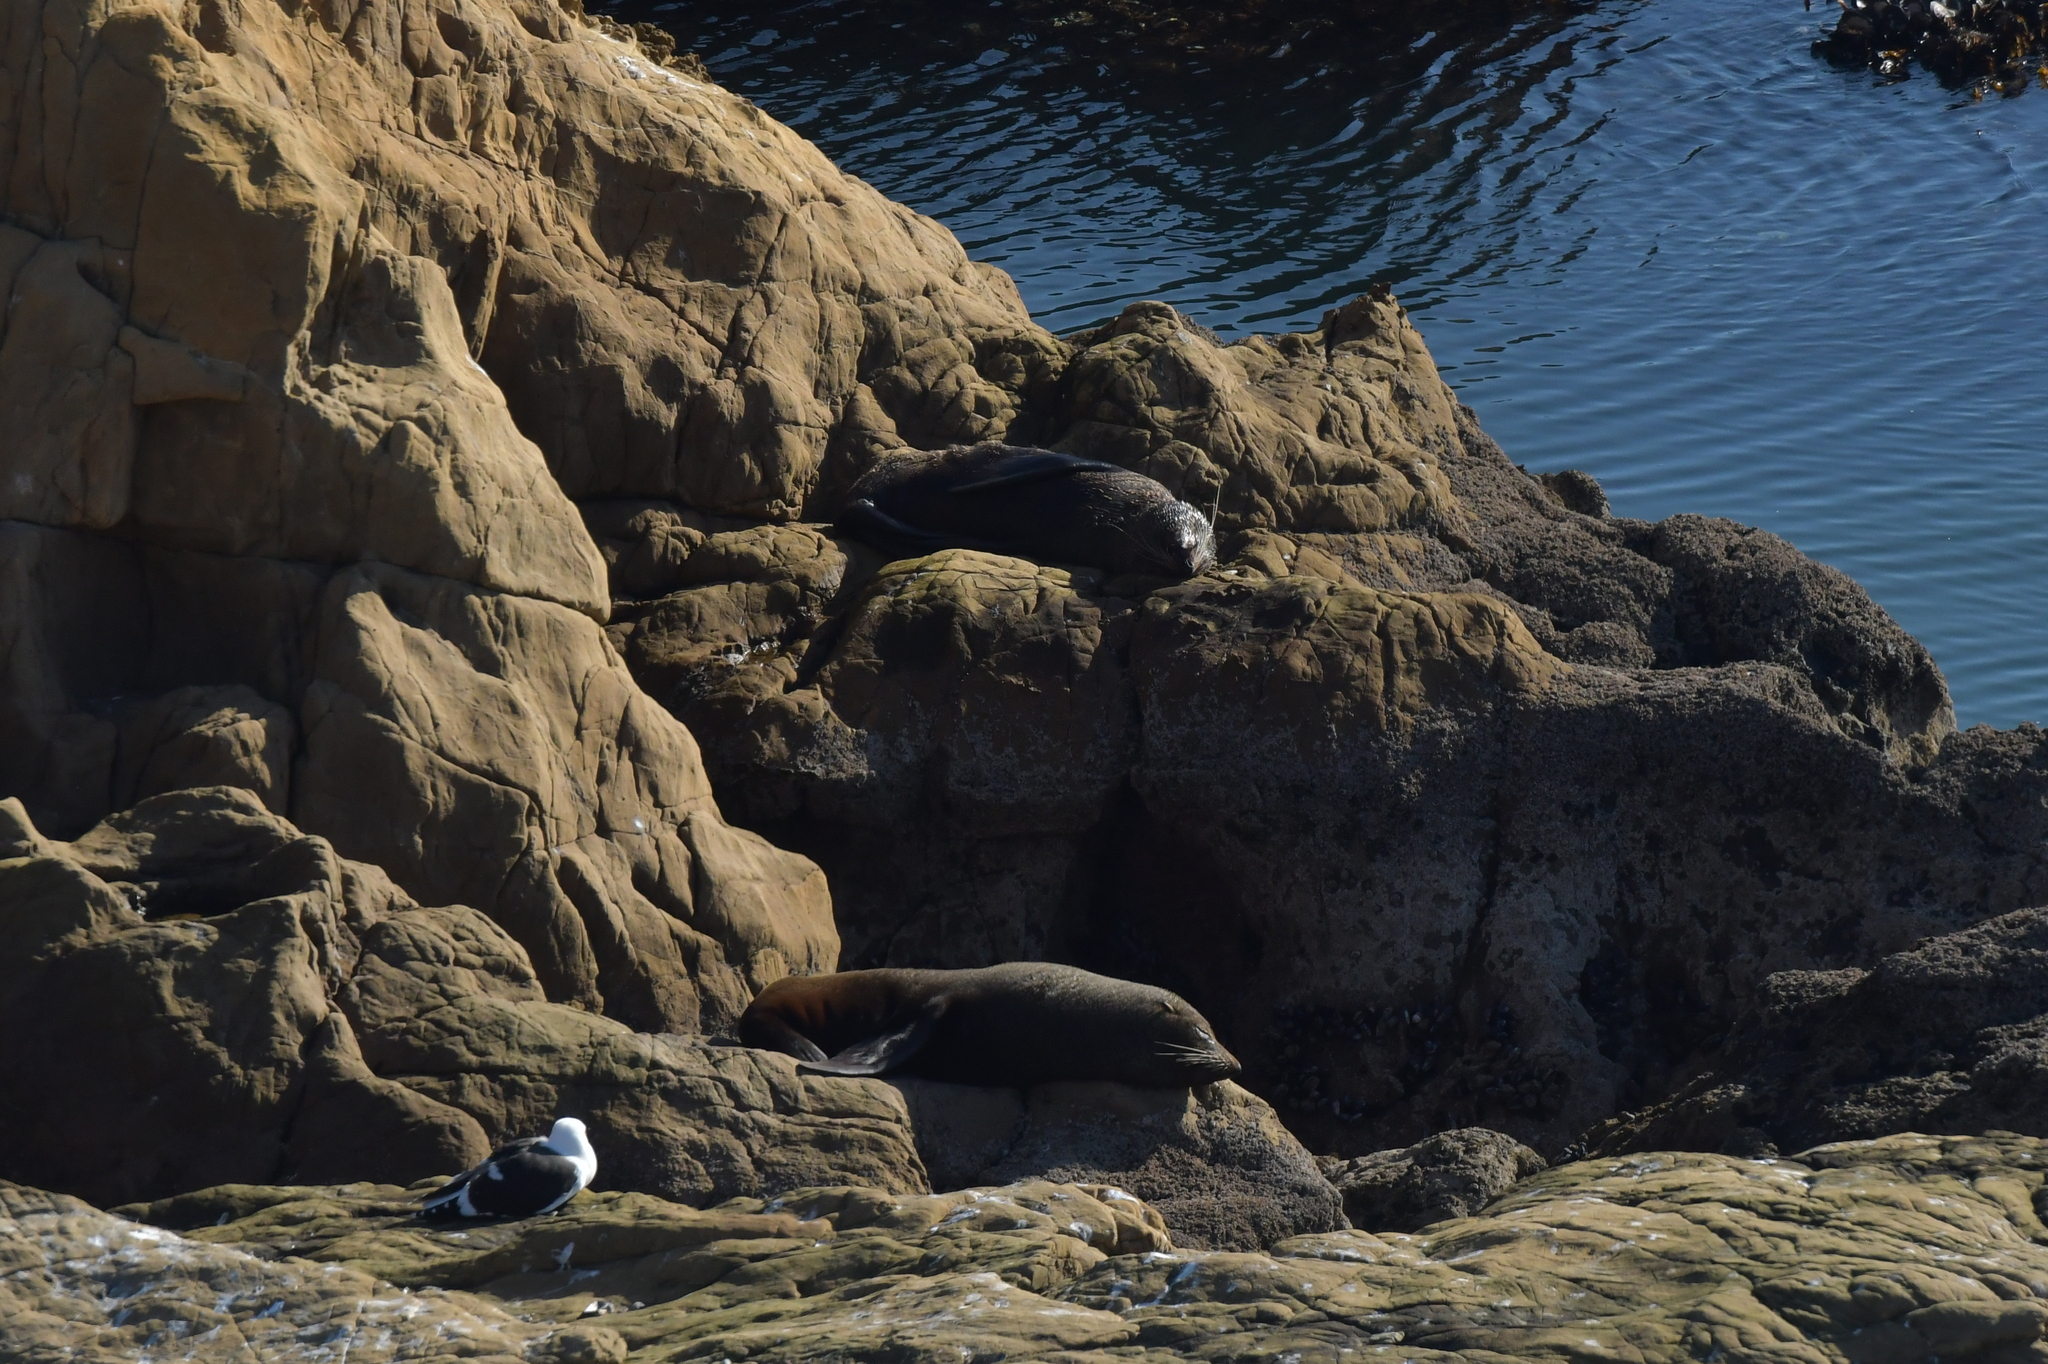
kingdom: Animalia
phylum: Chordata
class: Mammalia
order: Carnivora
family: Otariidae
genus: Arctocephalus
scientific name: Arctocephalus forsteri
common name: New zealand fur seal
